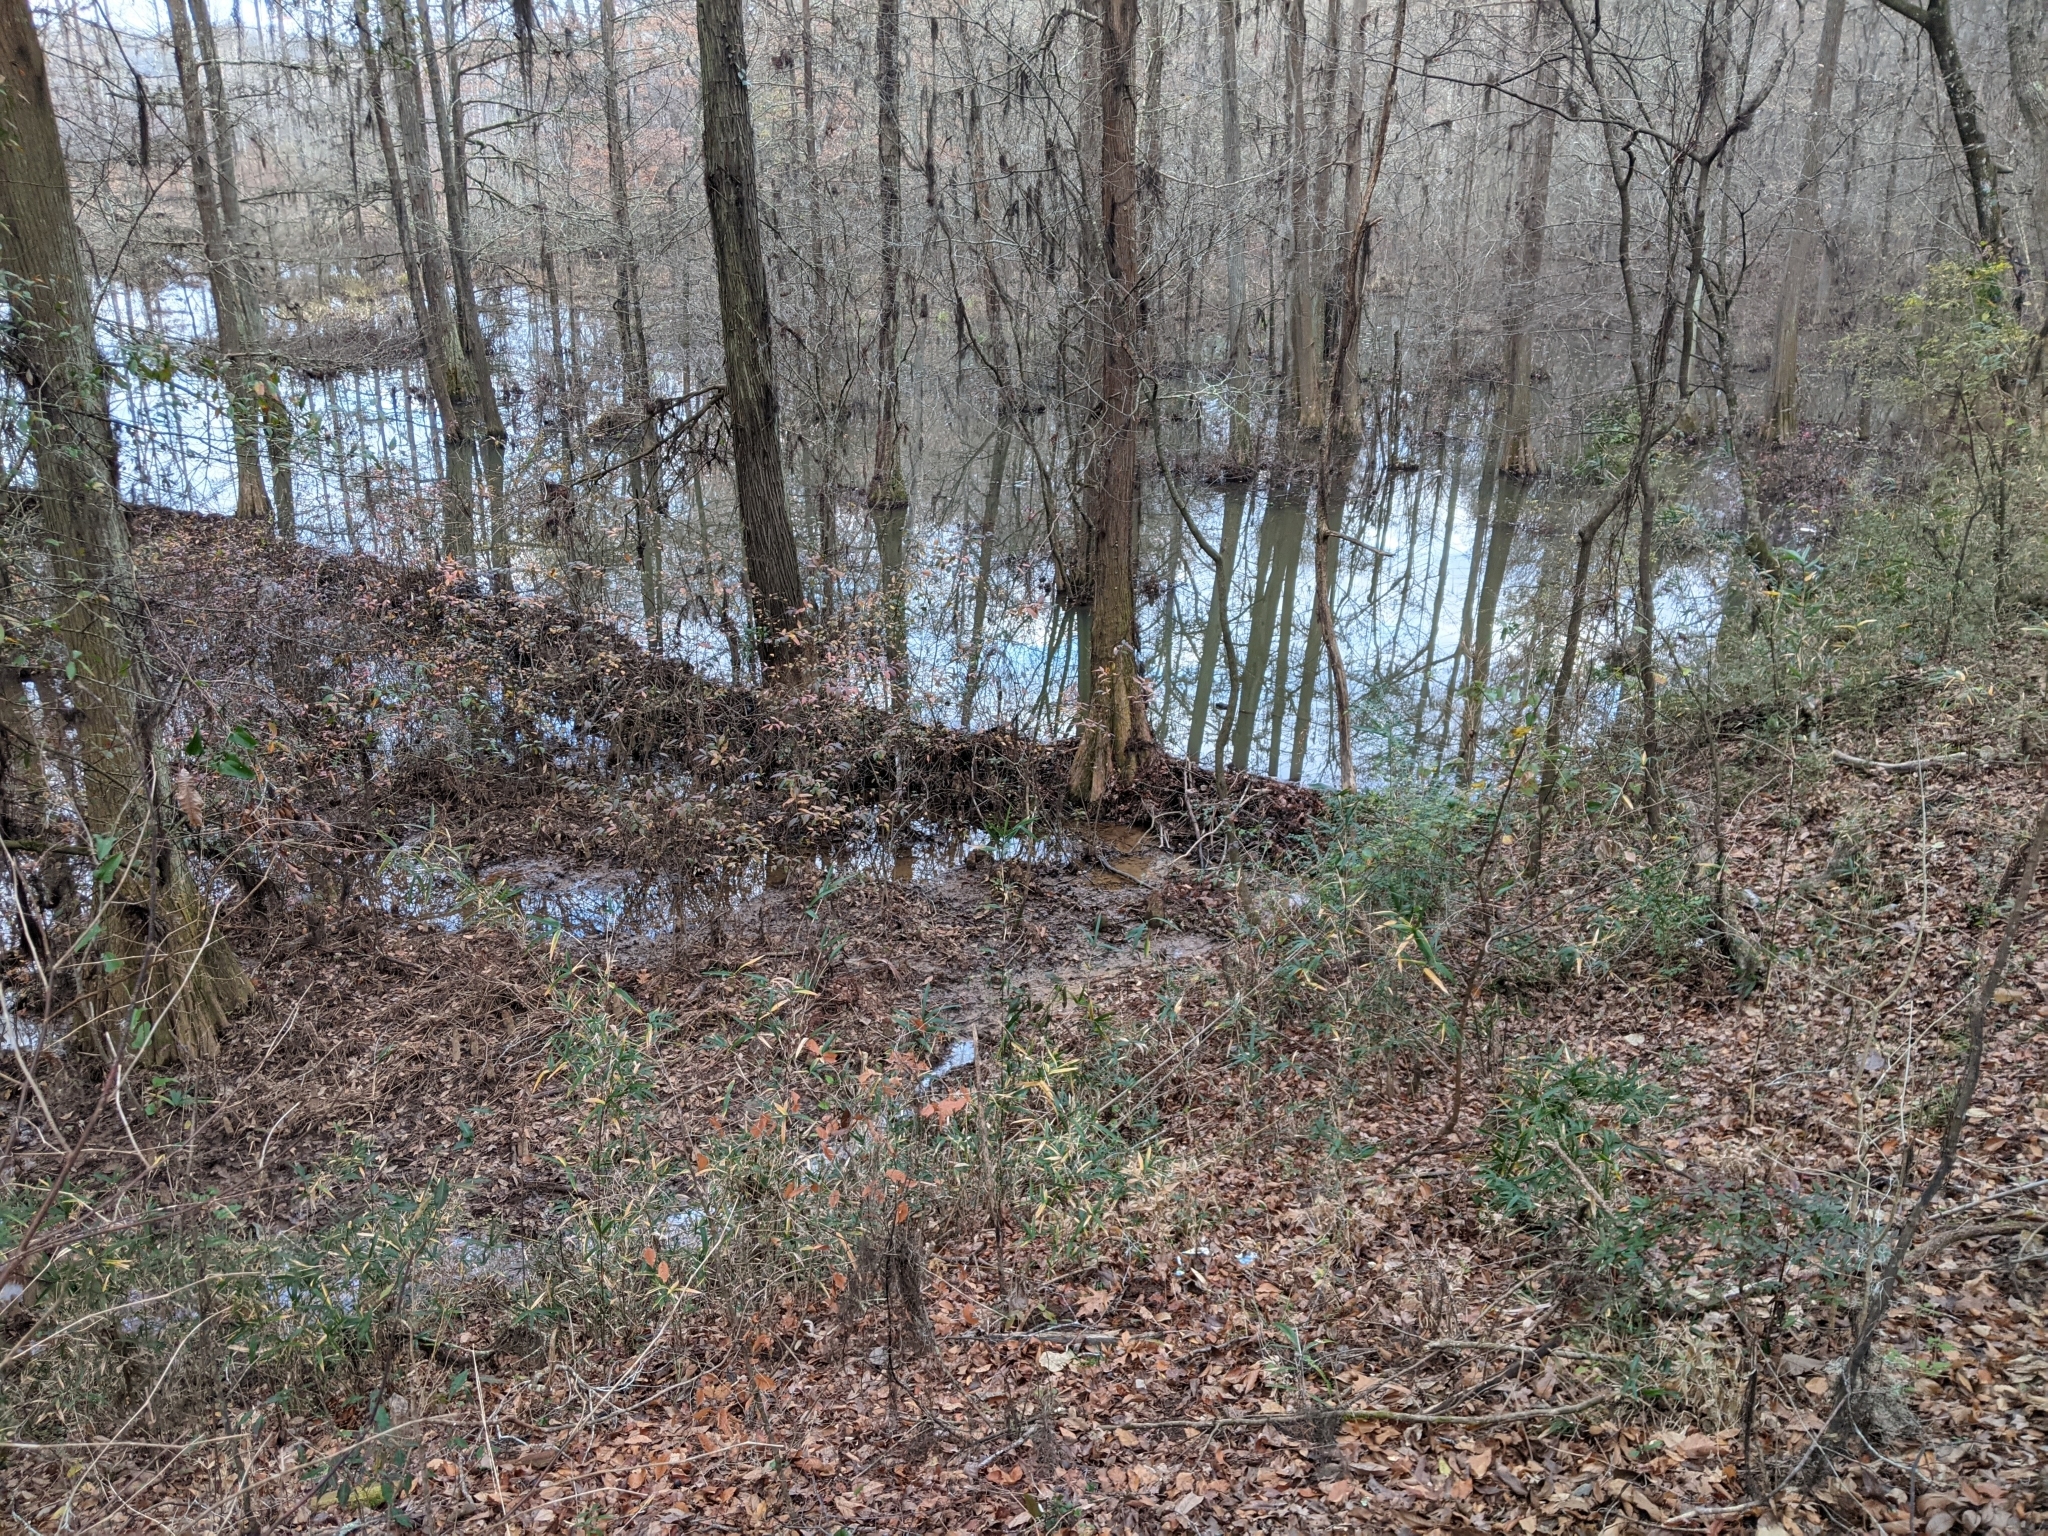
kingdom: Animalia
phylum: Chordata
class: Mammalia
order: Rodentia
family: Castoridae
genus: Castor
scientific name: Castor canadensis
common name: American beaver
